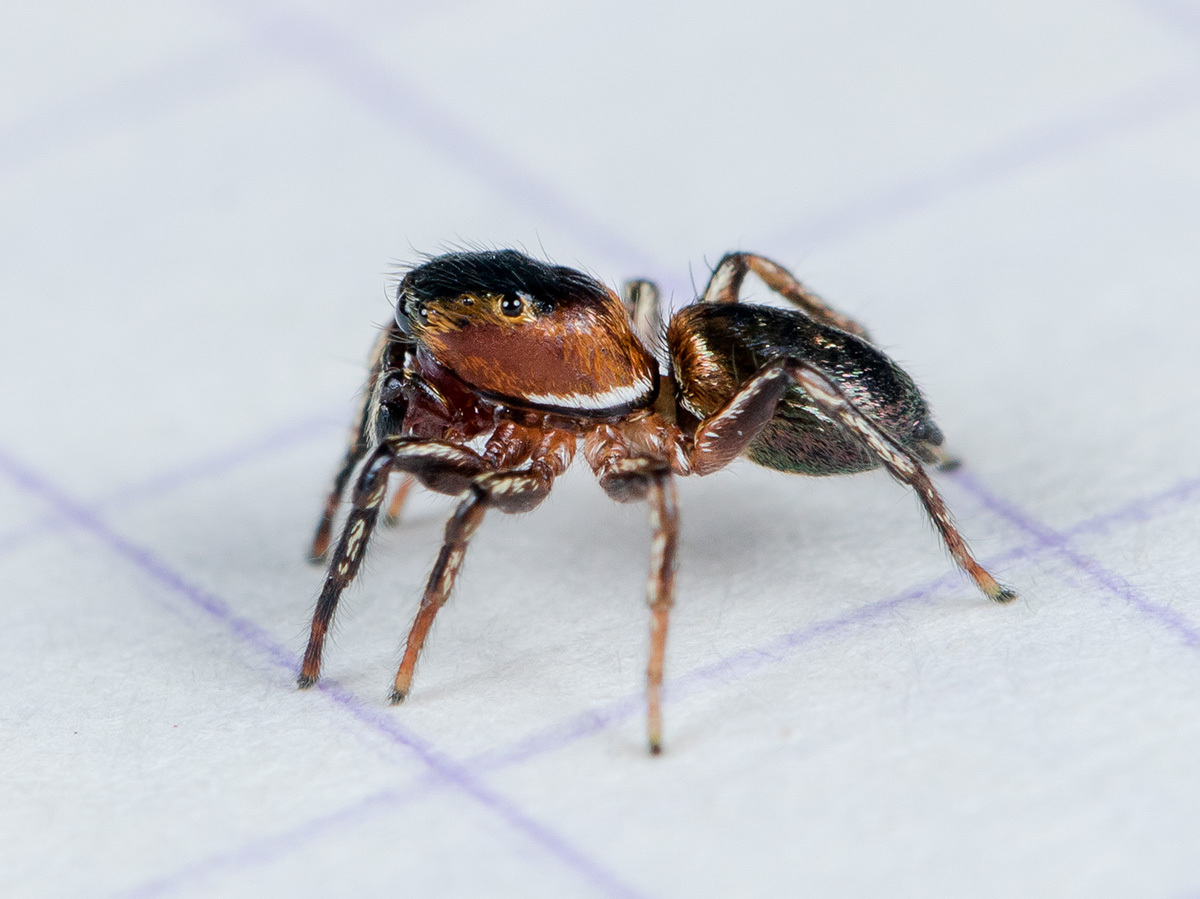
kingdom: Animalia
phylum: Arthropoda
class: Arachnida
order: Araneae
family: Salticidae
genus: Heliophanus
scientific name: Heliophanus potanini
